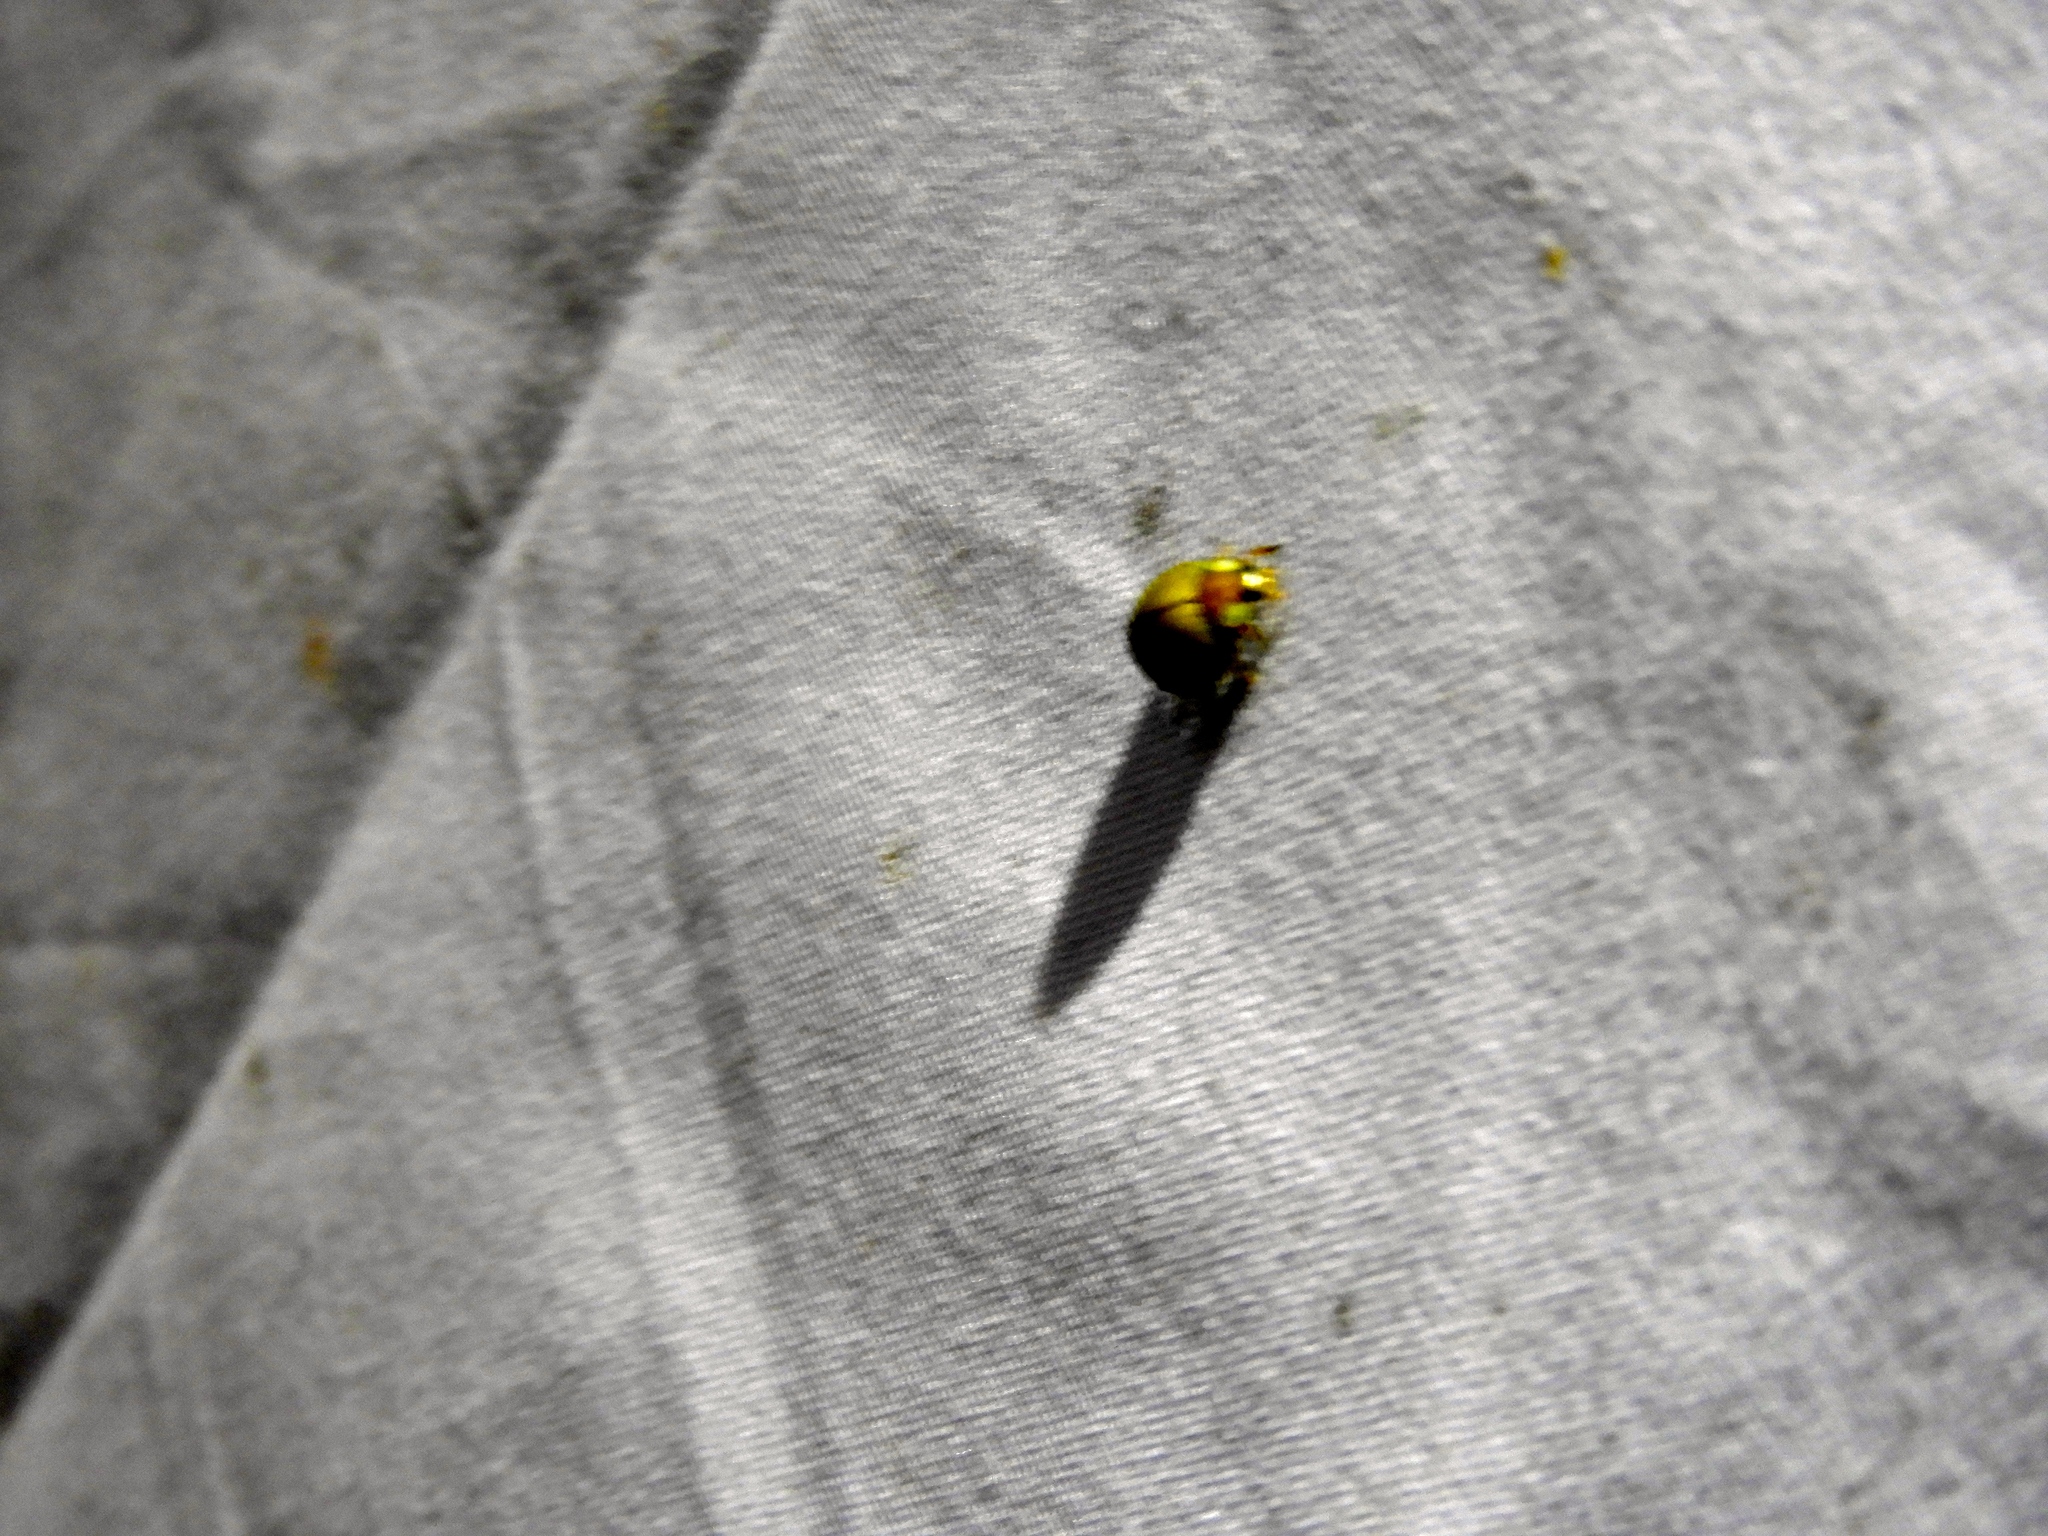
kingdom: Animalia
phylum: Arthropoda
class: Insecta
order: Coleoptera
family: Coccinellidae
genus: Paraneda
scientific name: Paraneda
